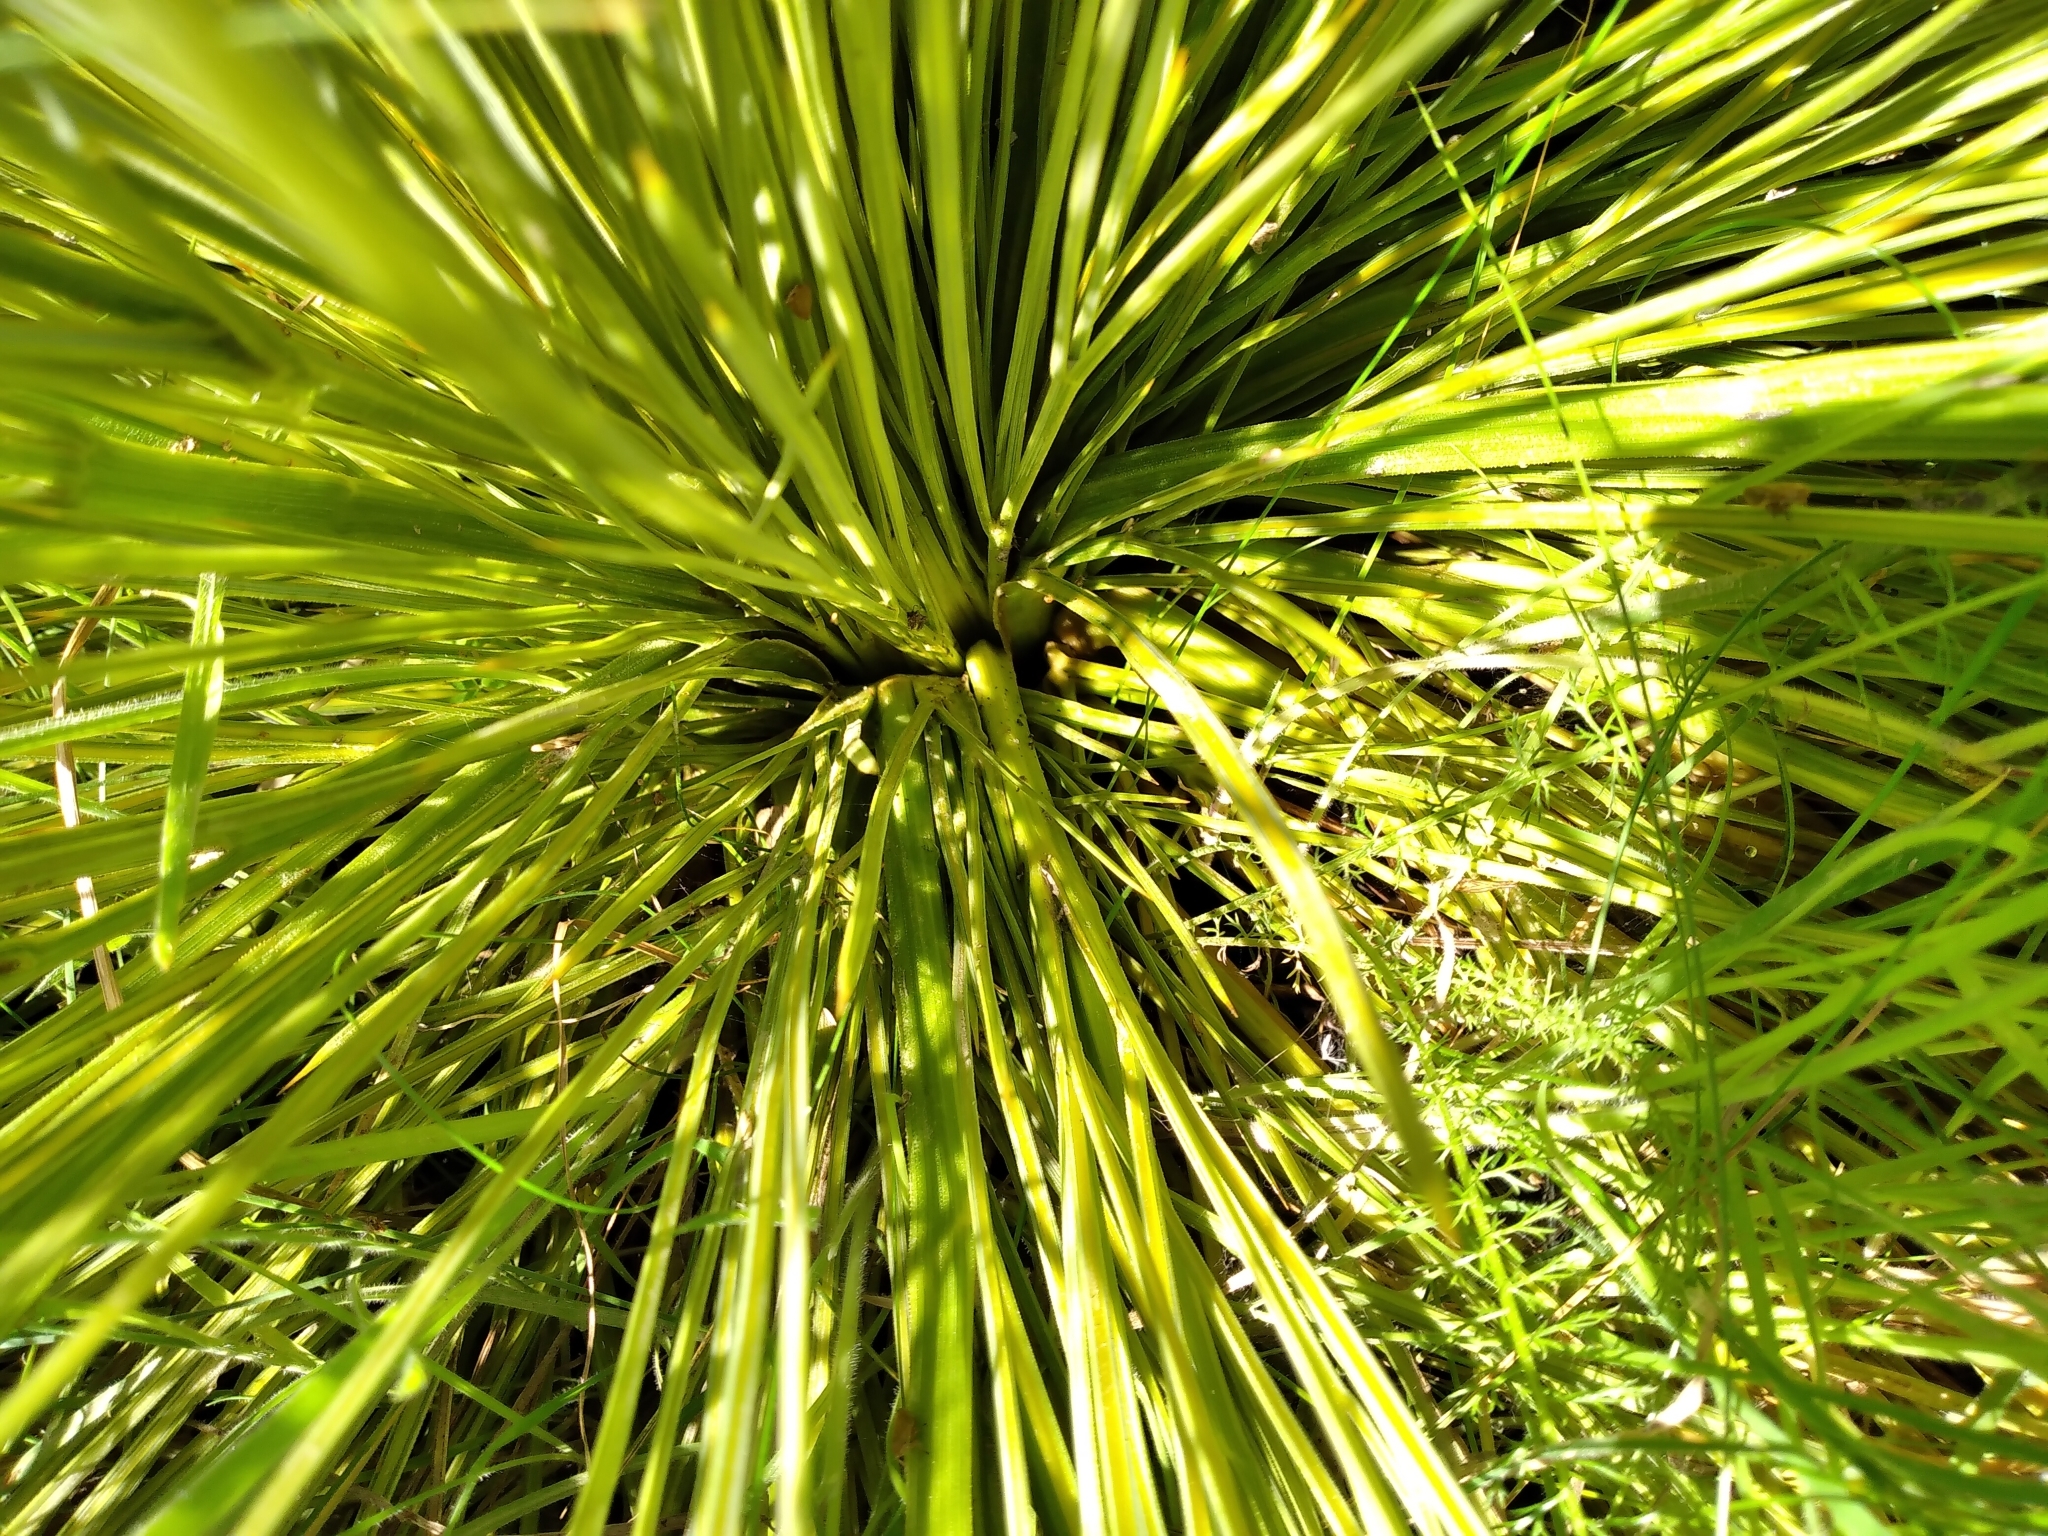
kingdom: Plantae
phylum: Tracheophyta
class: Magnoliopsida
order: Apiales
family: Apiaceae
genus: Aciphylla
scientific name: Aciphylla subflabellata
